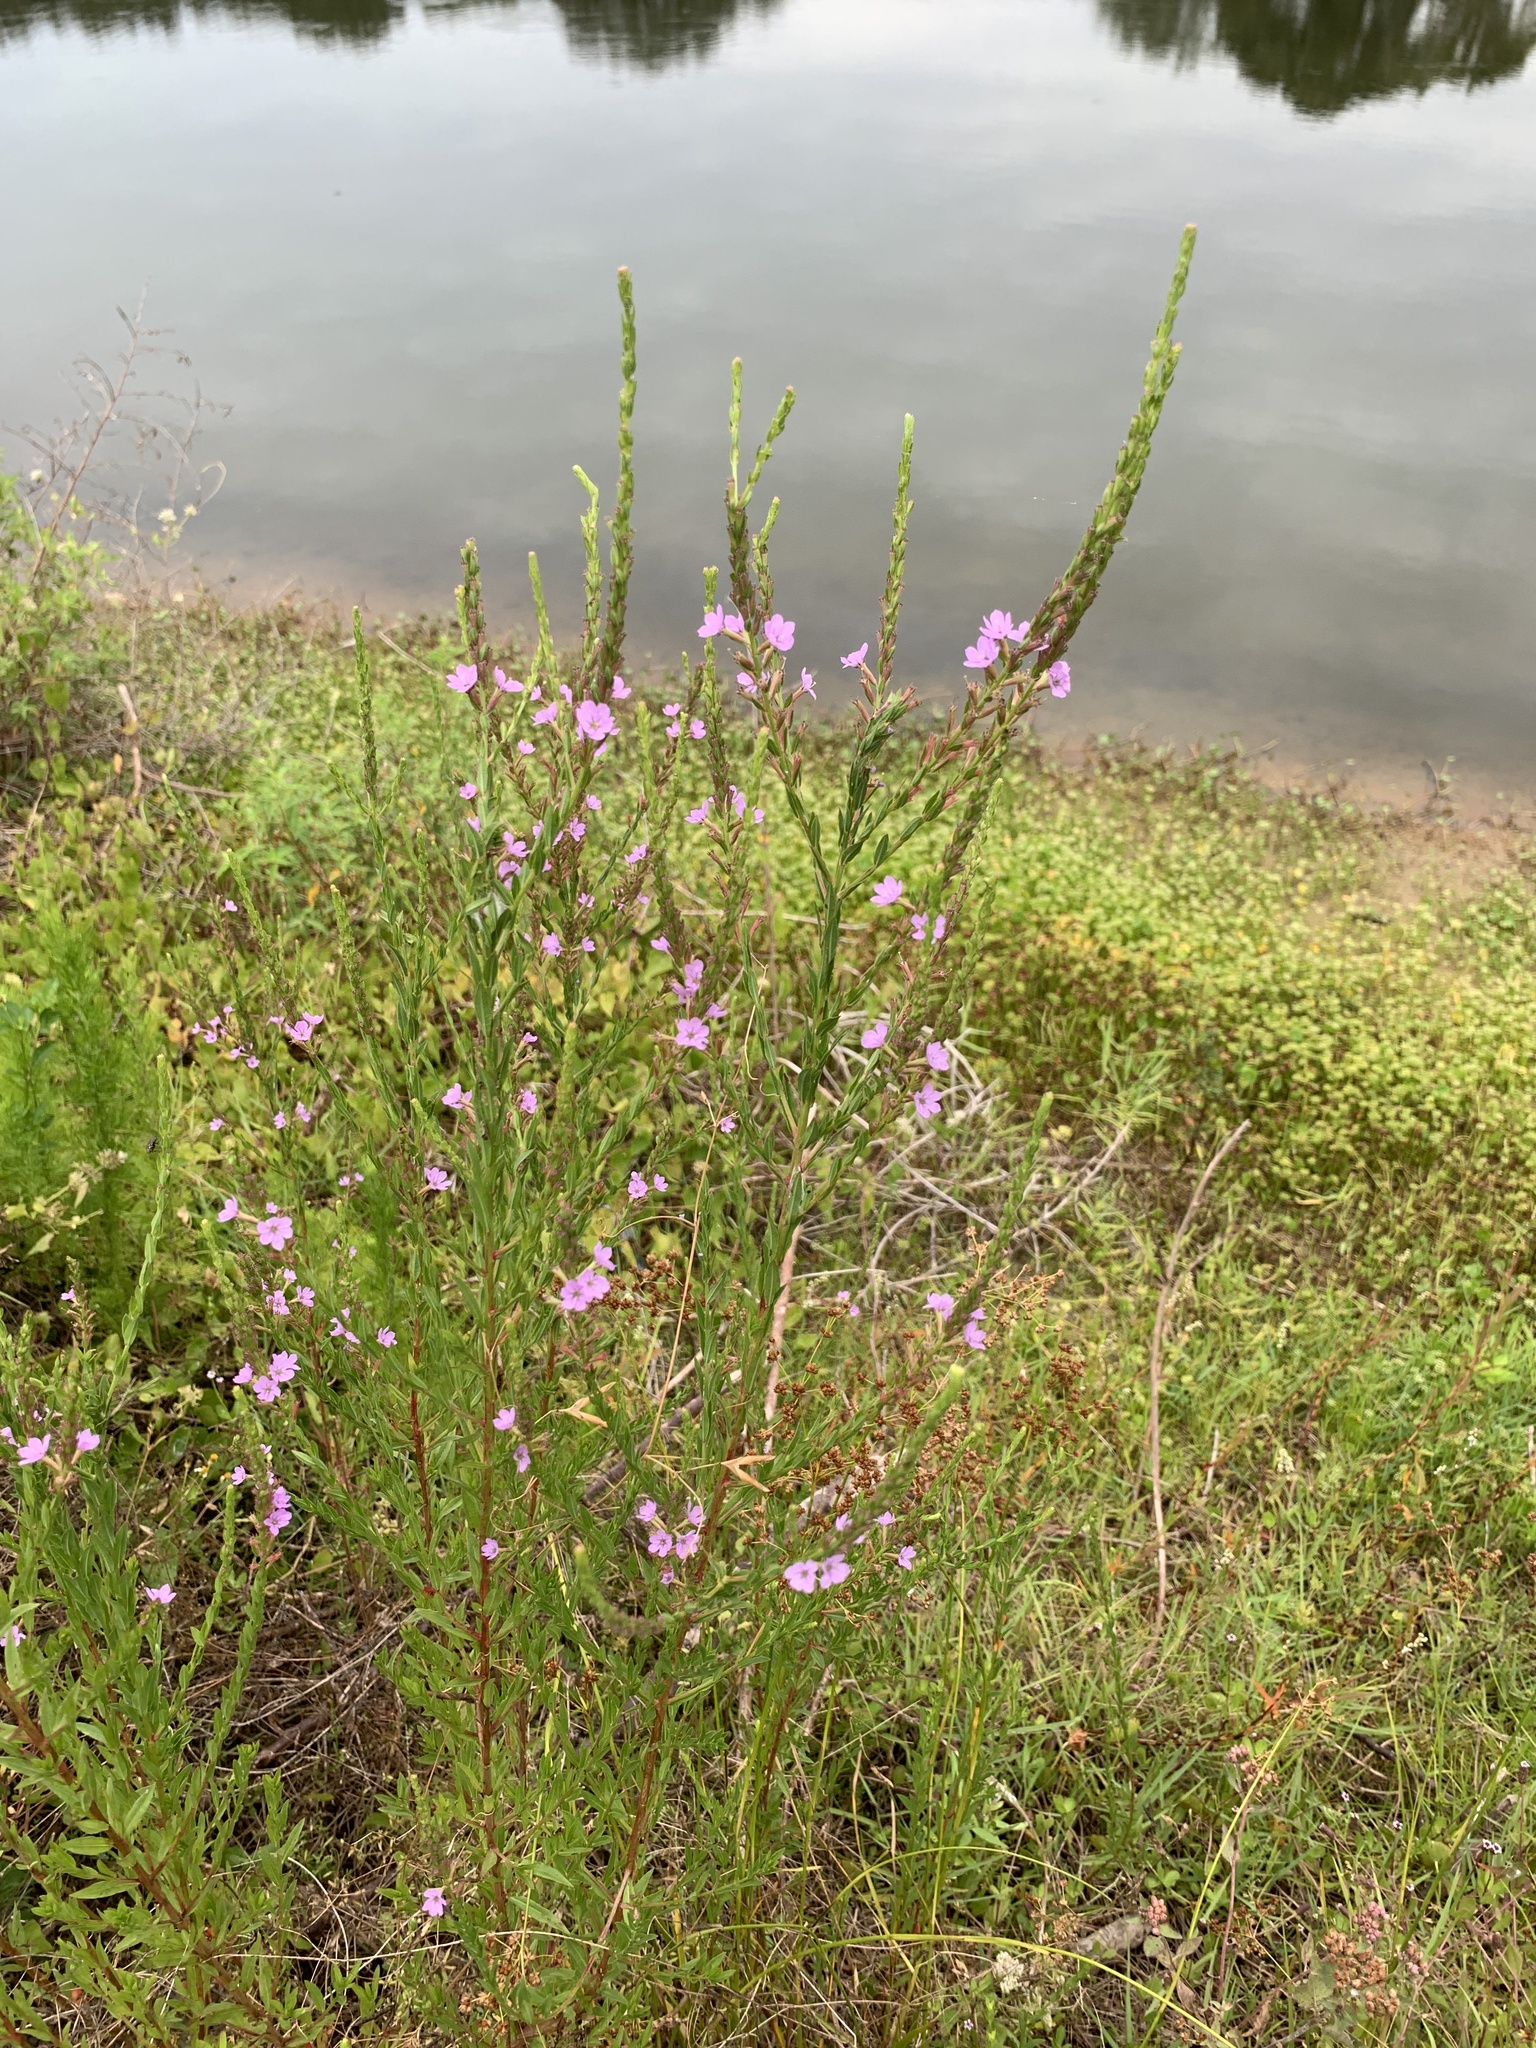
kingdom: Plantae
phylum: Tracheophyta
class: Magnoliopsida
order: Myrtales
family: Lythraceae
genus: Lythrum
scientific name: Lythrum alatum
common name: Winged loosestrife
